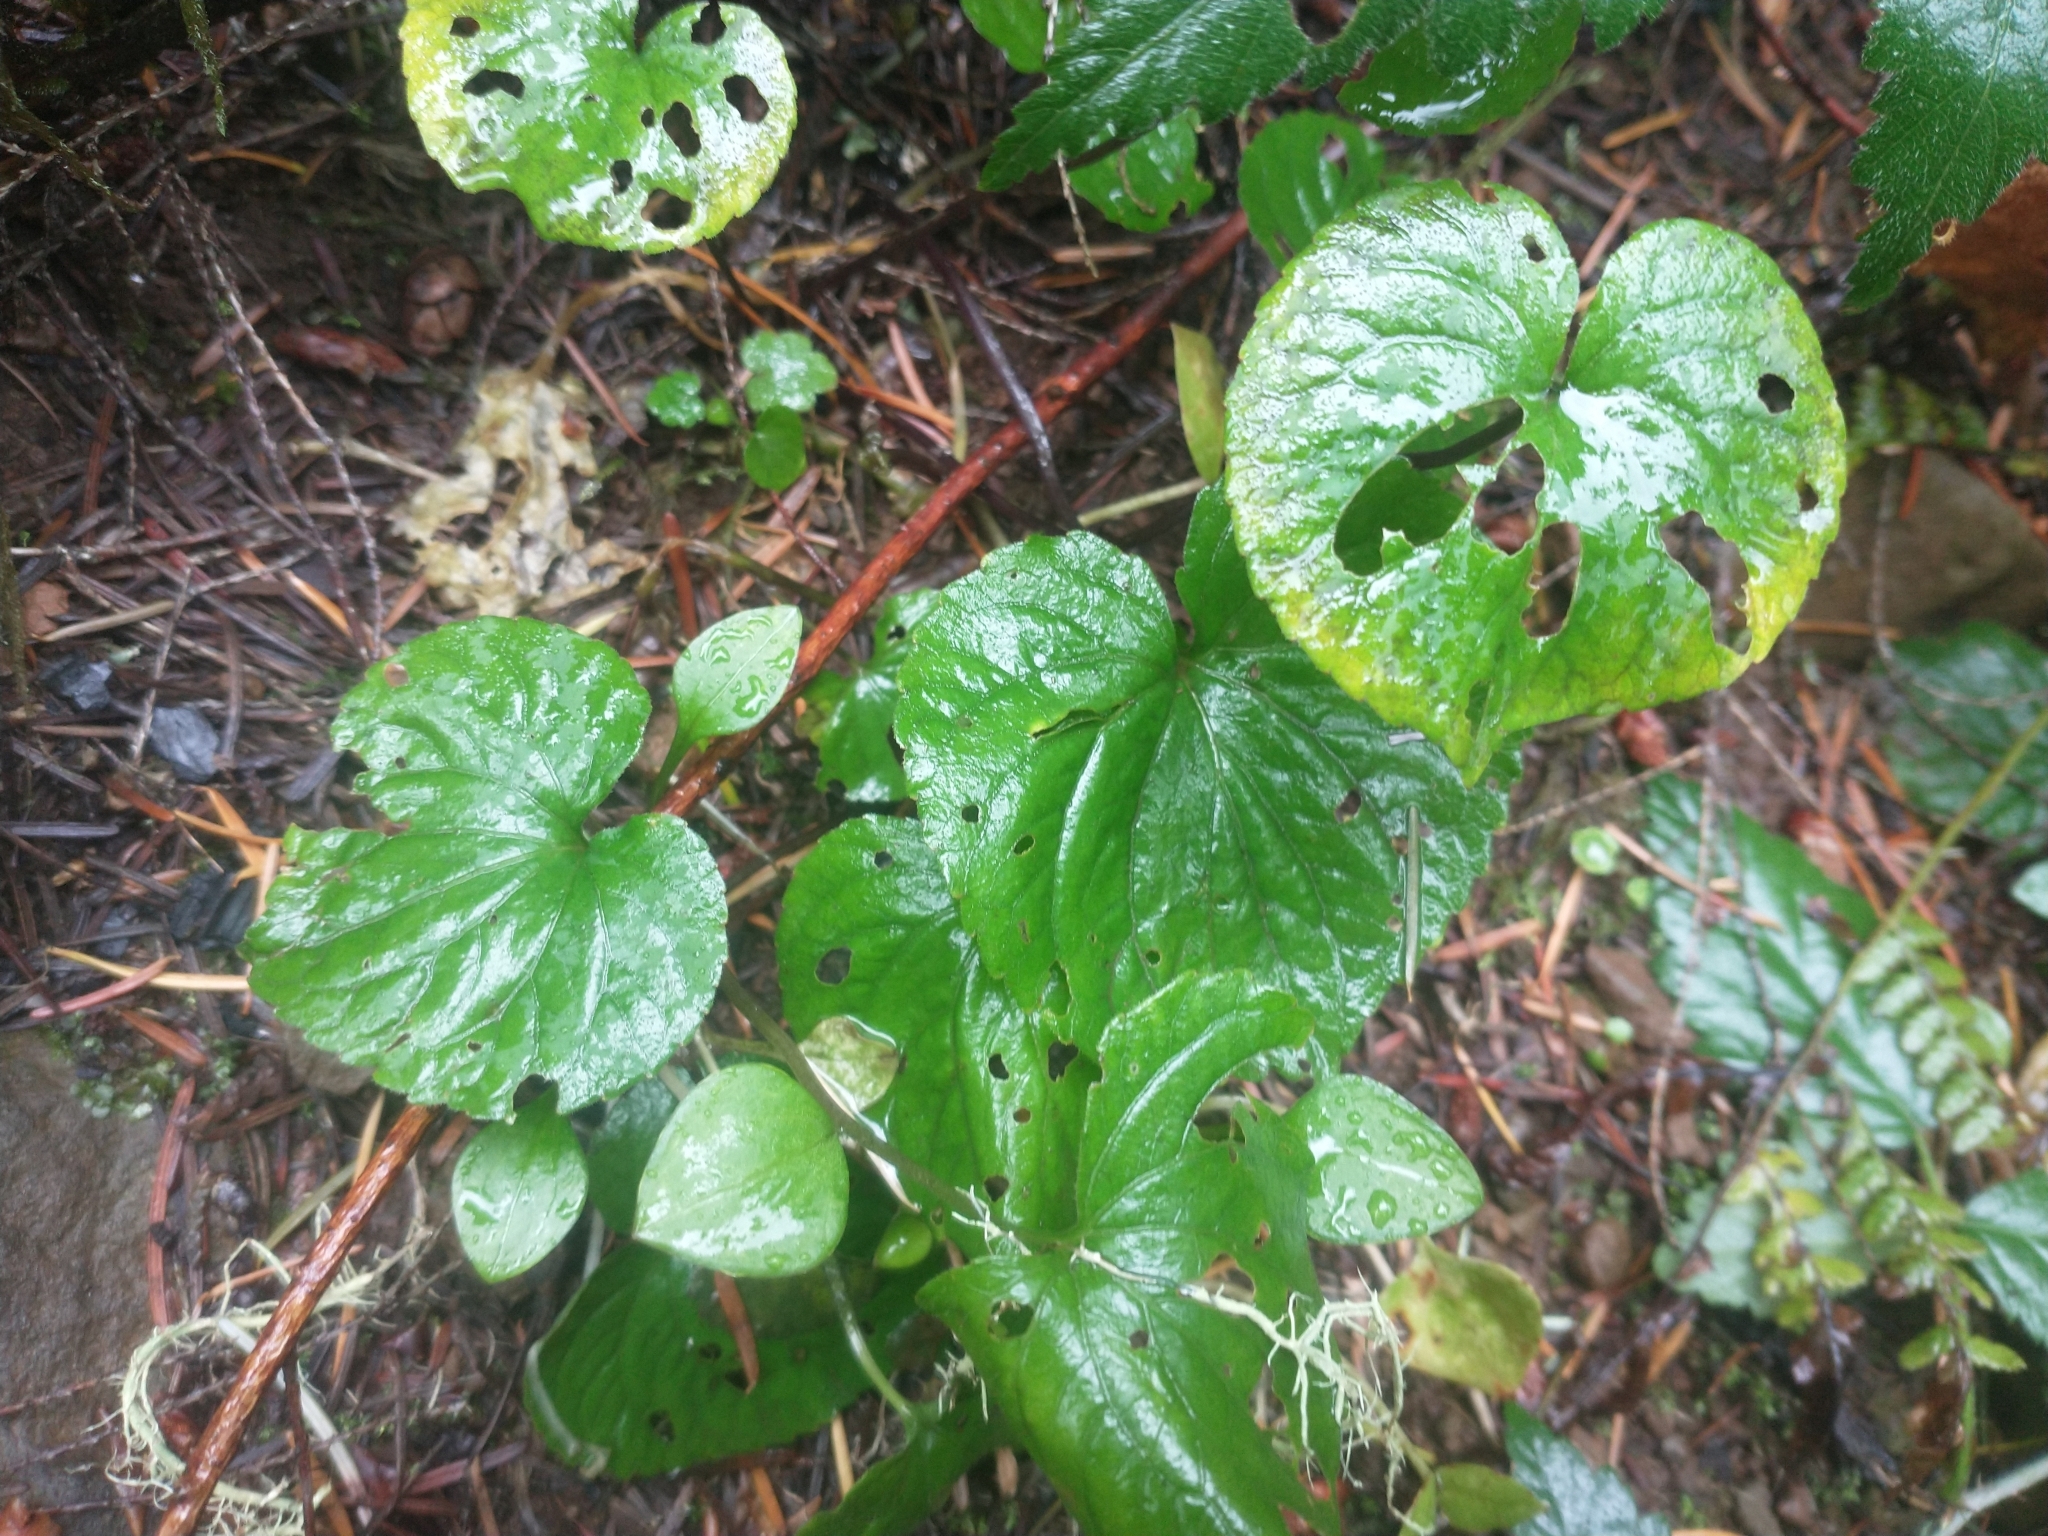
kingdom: Plantae
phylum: Tracheophyta
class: Magnoliopsida
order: Malpighiales
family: Violaceae
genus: Viola
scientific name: Viola glabella
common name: Stream violet
